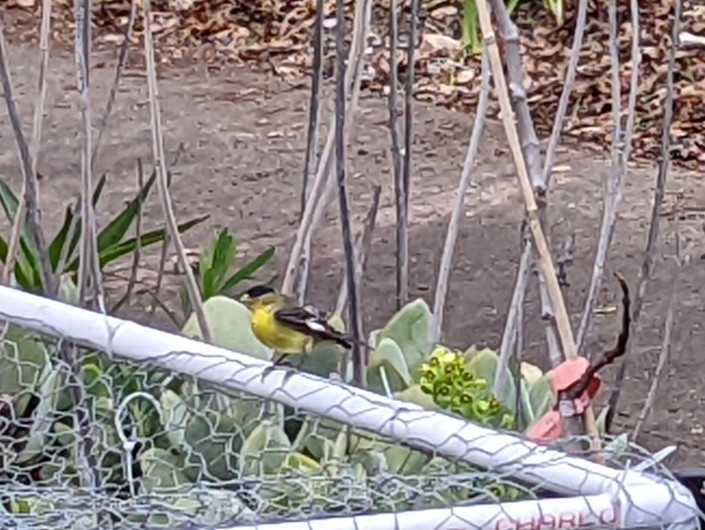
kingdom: Animalia
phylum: Chordata
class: Aves
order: Passeriformes
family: Fringillidae
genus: Spinus
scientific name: Spinus psaltria
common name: Lesser goldfinch
